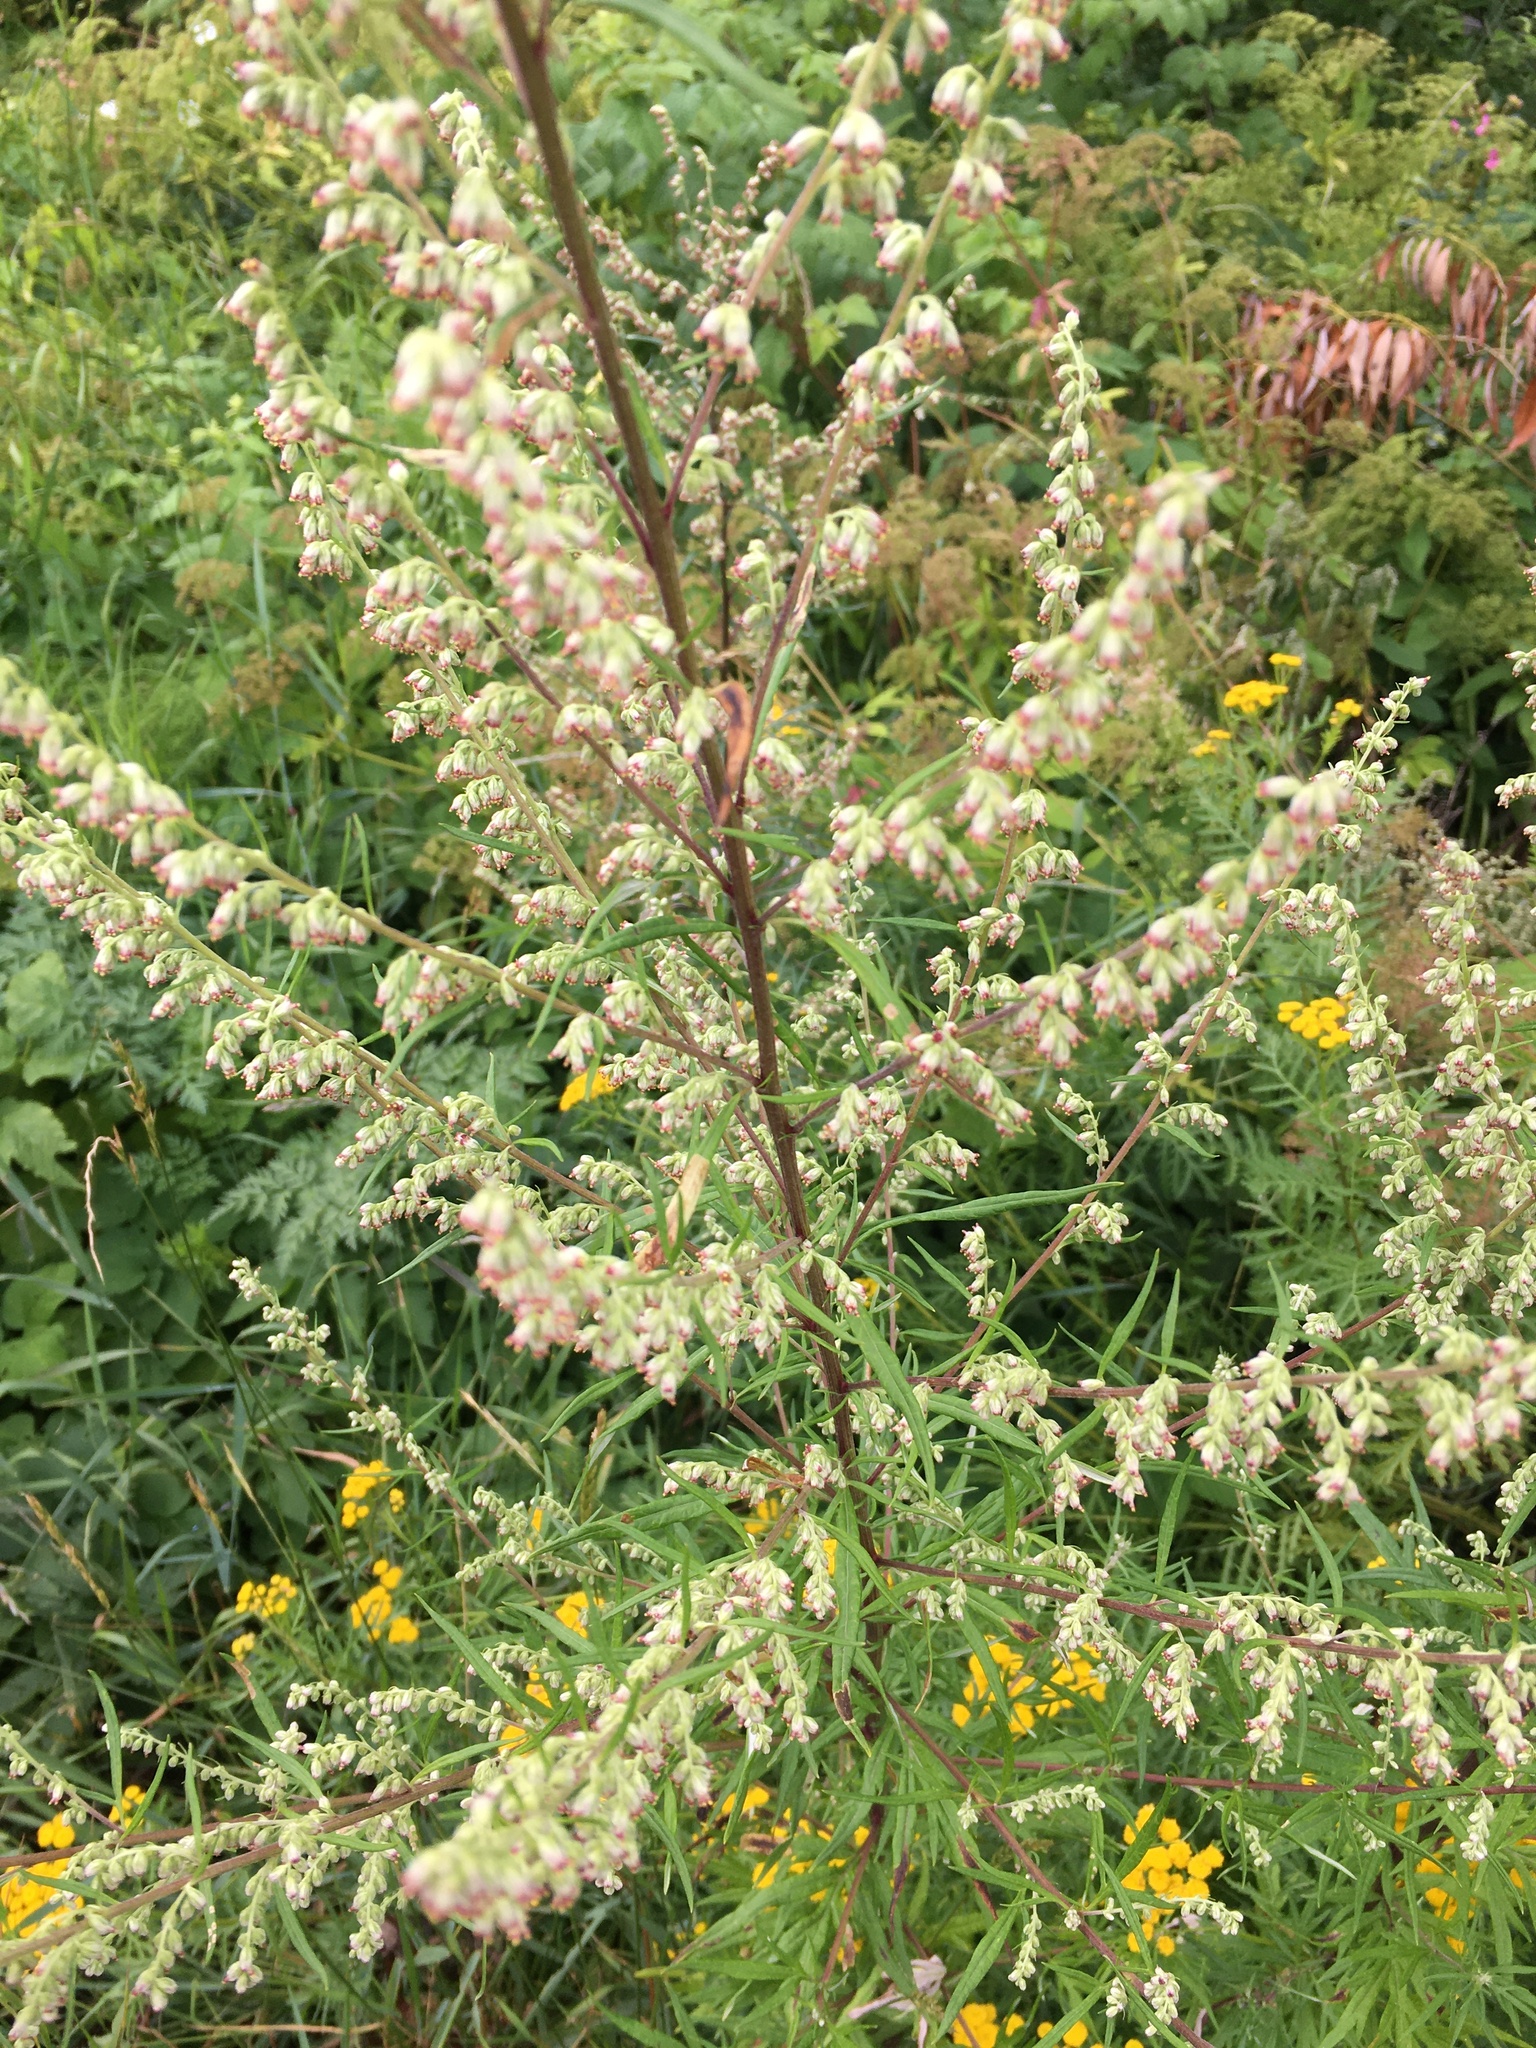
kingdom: Plantae
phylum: Tracheophyta
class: Magnoliopsida
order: Asterales
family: Asteraceae
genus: Artemisia
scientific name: Artemisia vulgaris
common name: Mugwort
